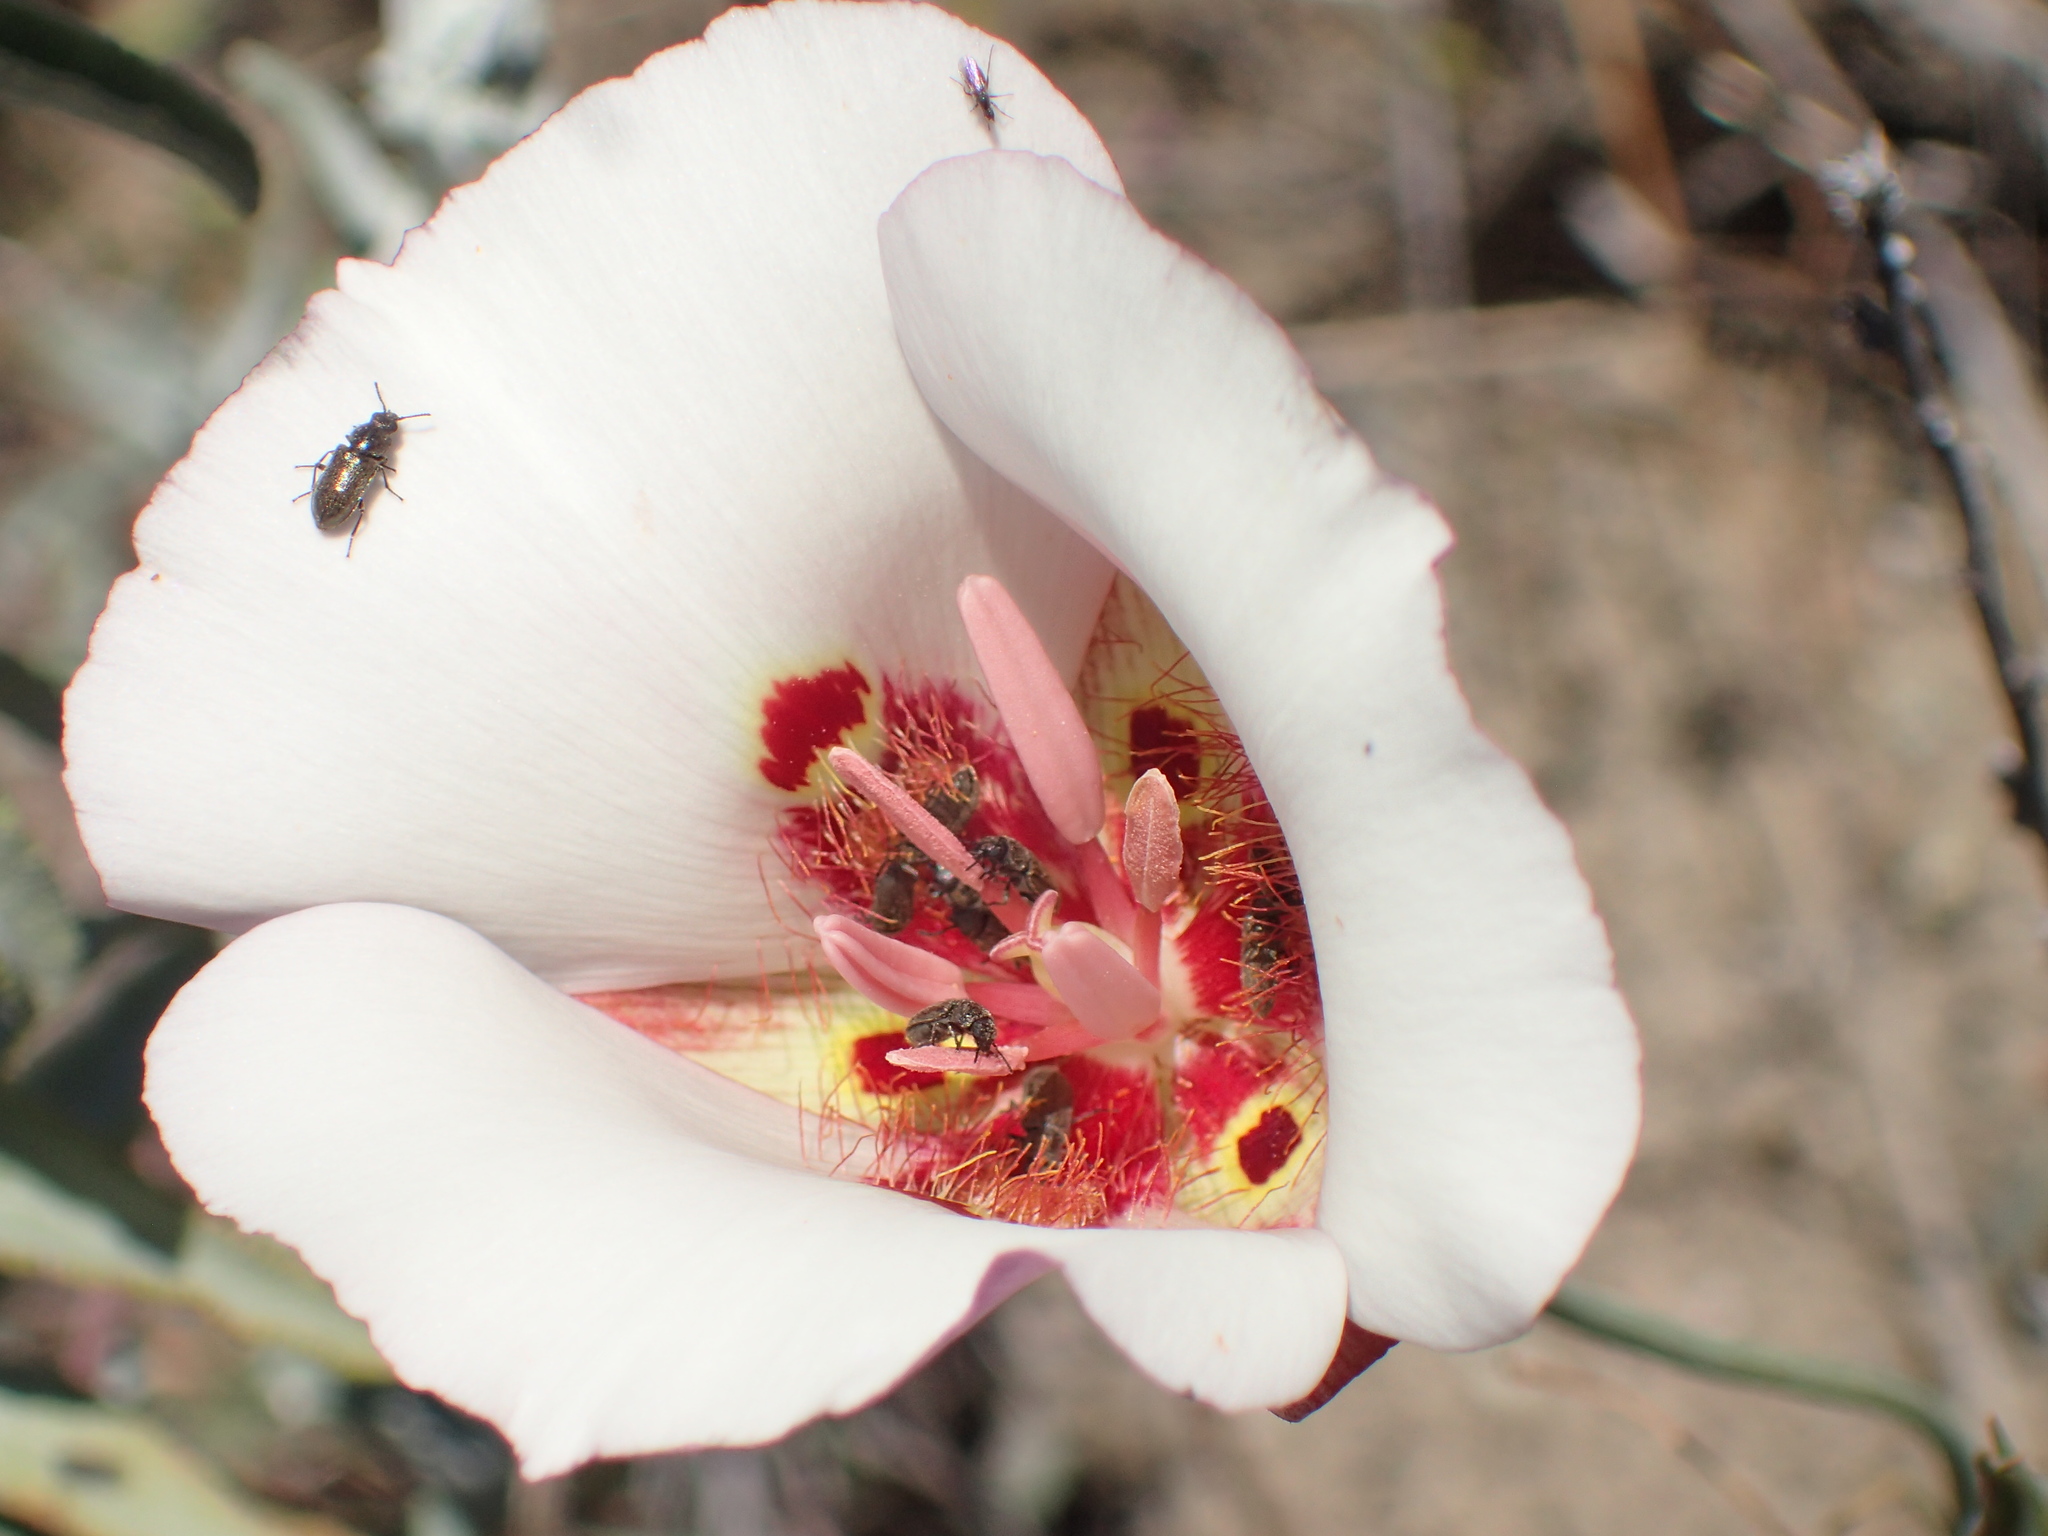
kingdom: Plantae
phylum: Tracheophyta
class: Liliopsida
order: Liliales
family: Liliaceae
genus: Calochortus
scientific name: Calochortus venustus
